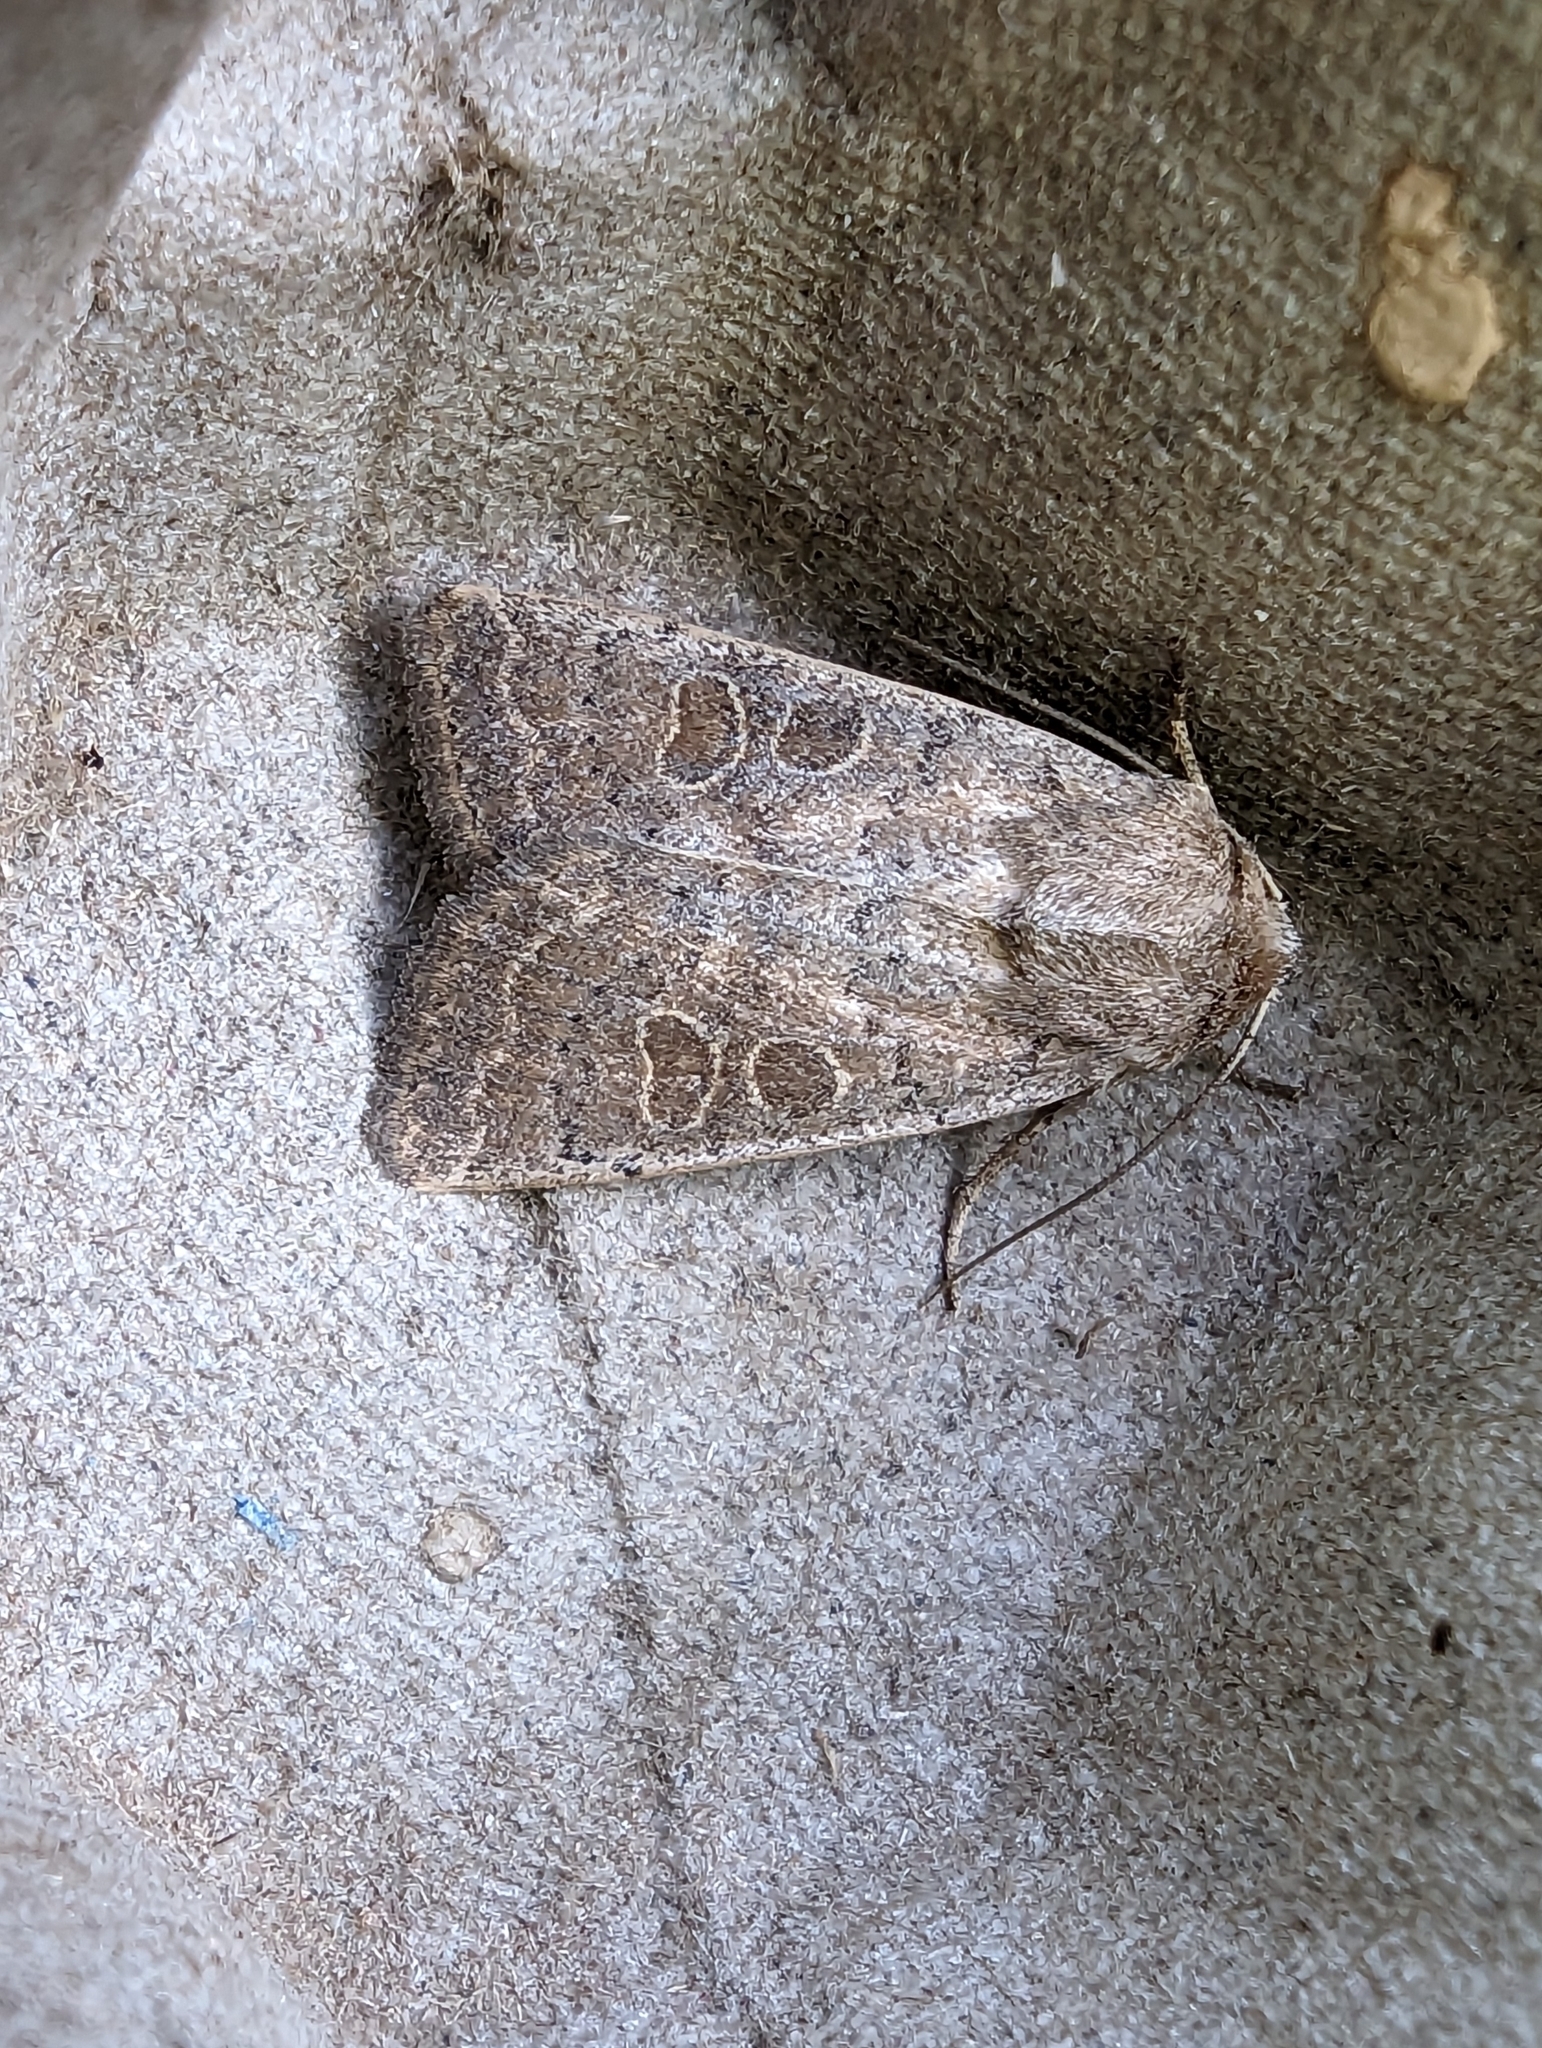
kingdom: Animalia
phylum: Arthropoda
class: Insecta
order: Lepidoptera
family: Noctuidae
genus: Hoplodrina
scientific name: Hoplodrina ambigua
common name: Vine's rustic
